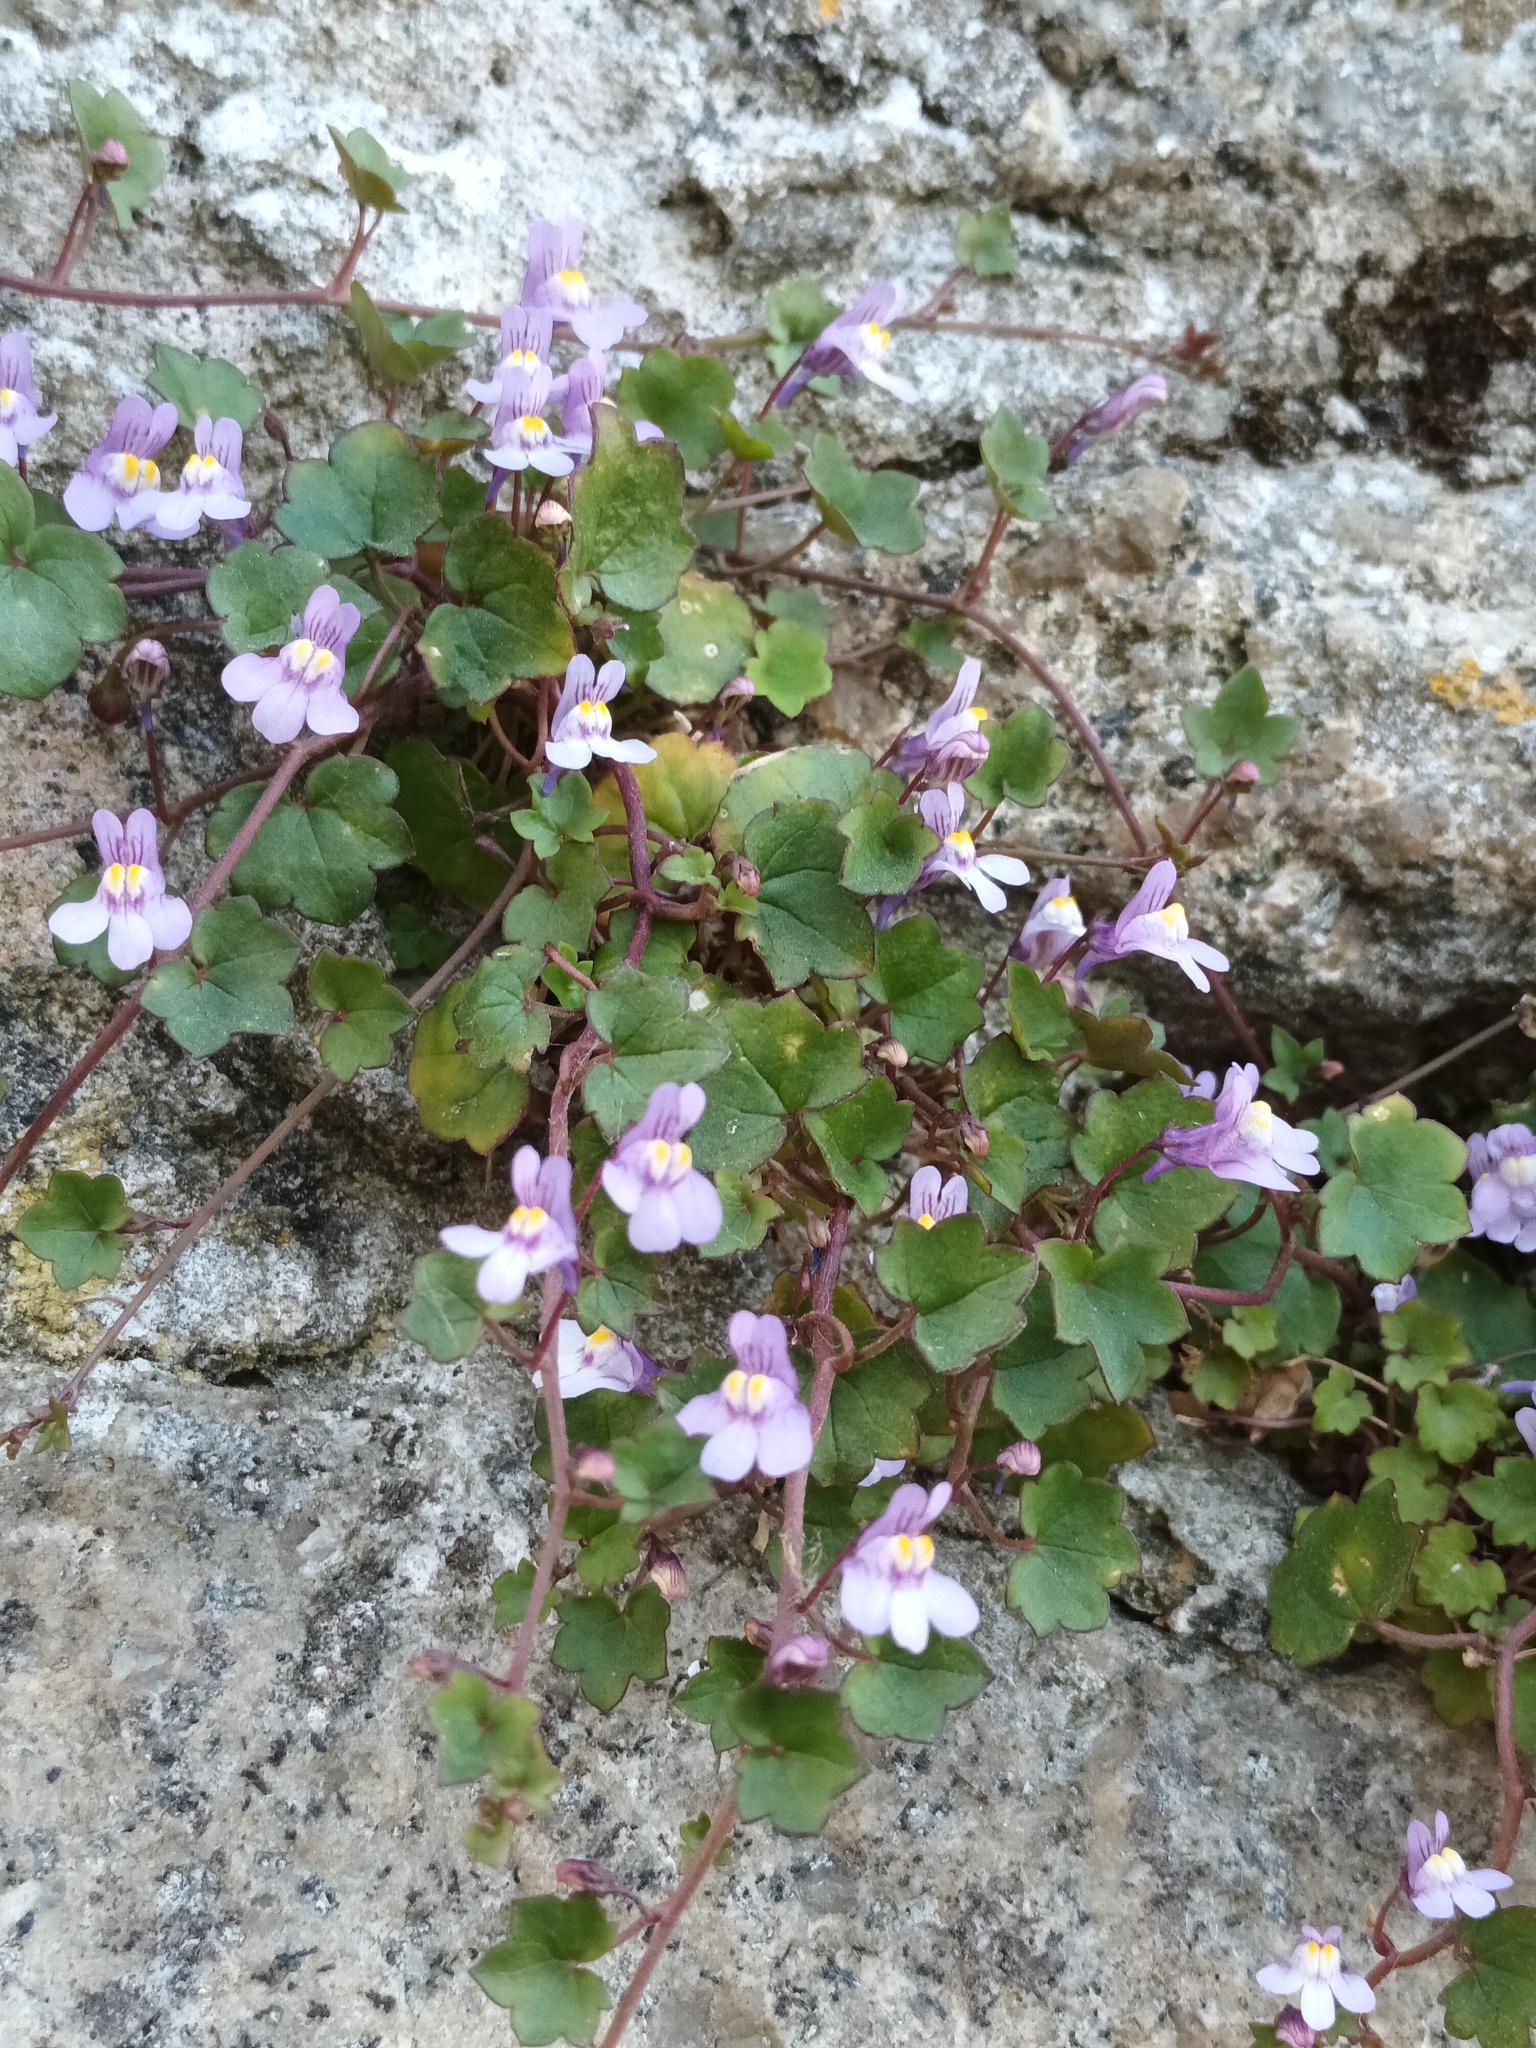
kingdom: Plantae
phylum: Tracheophyta
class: Magnoliopsida
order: Lamiales
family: Plantaginaceae
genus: Cymbalaria
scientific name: Cymbalaria muralis
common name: Ivy-leaved toadflax
